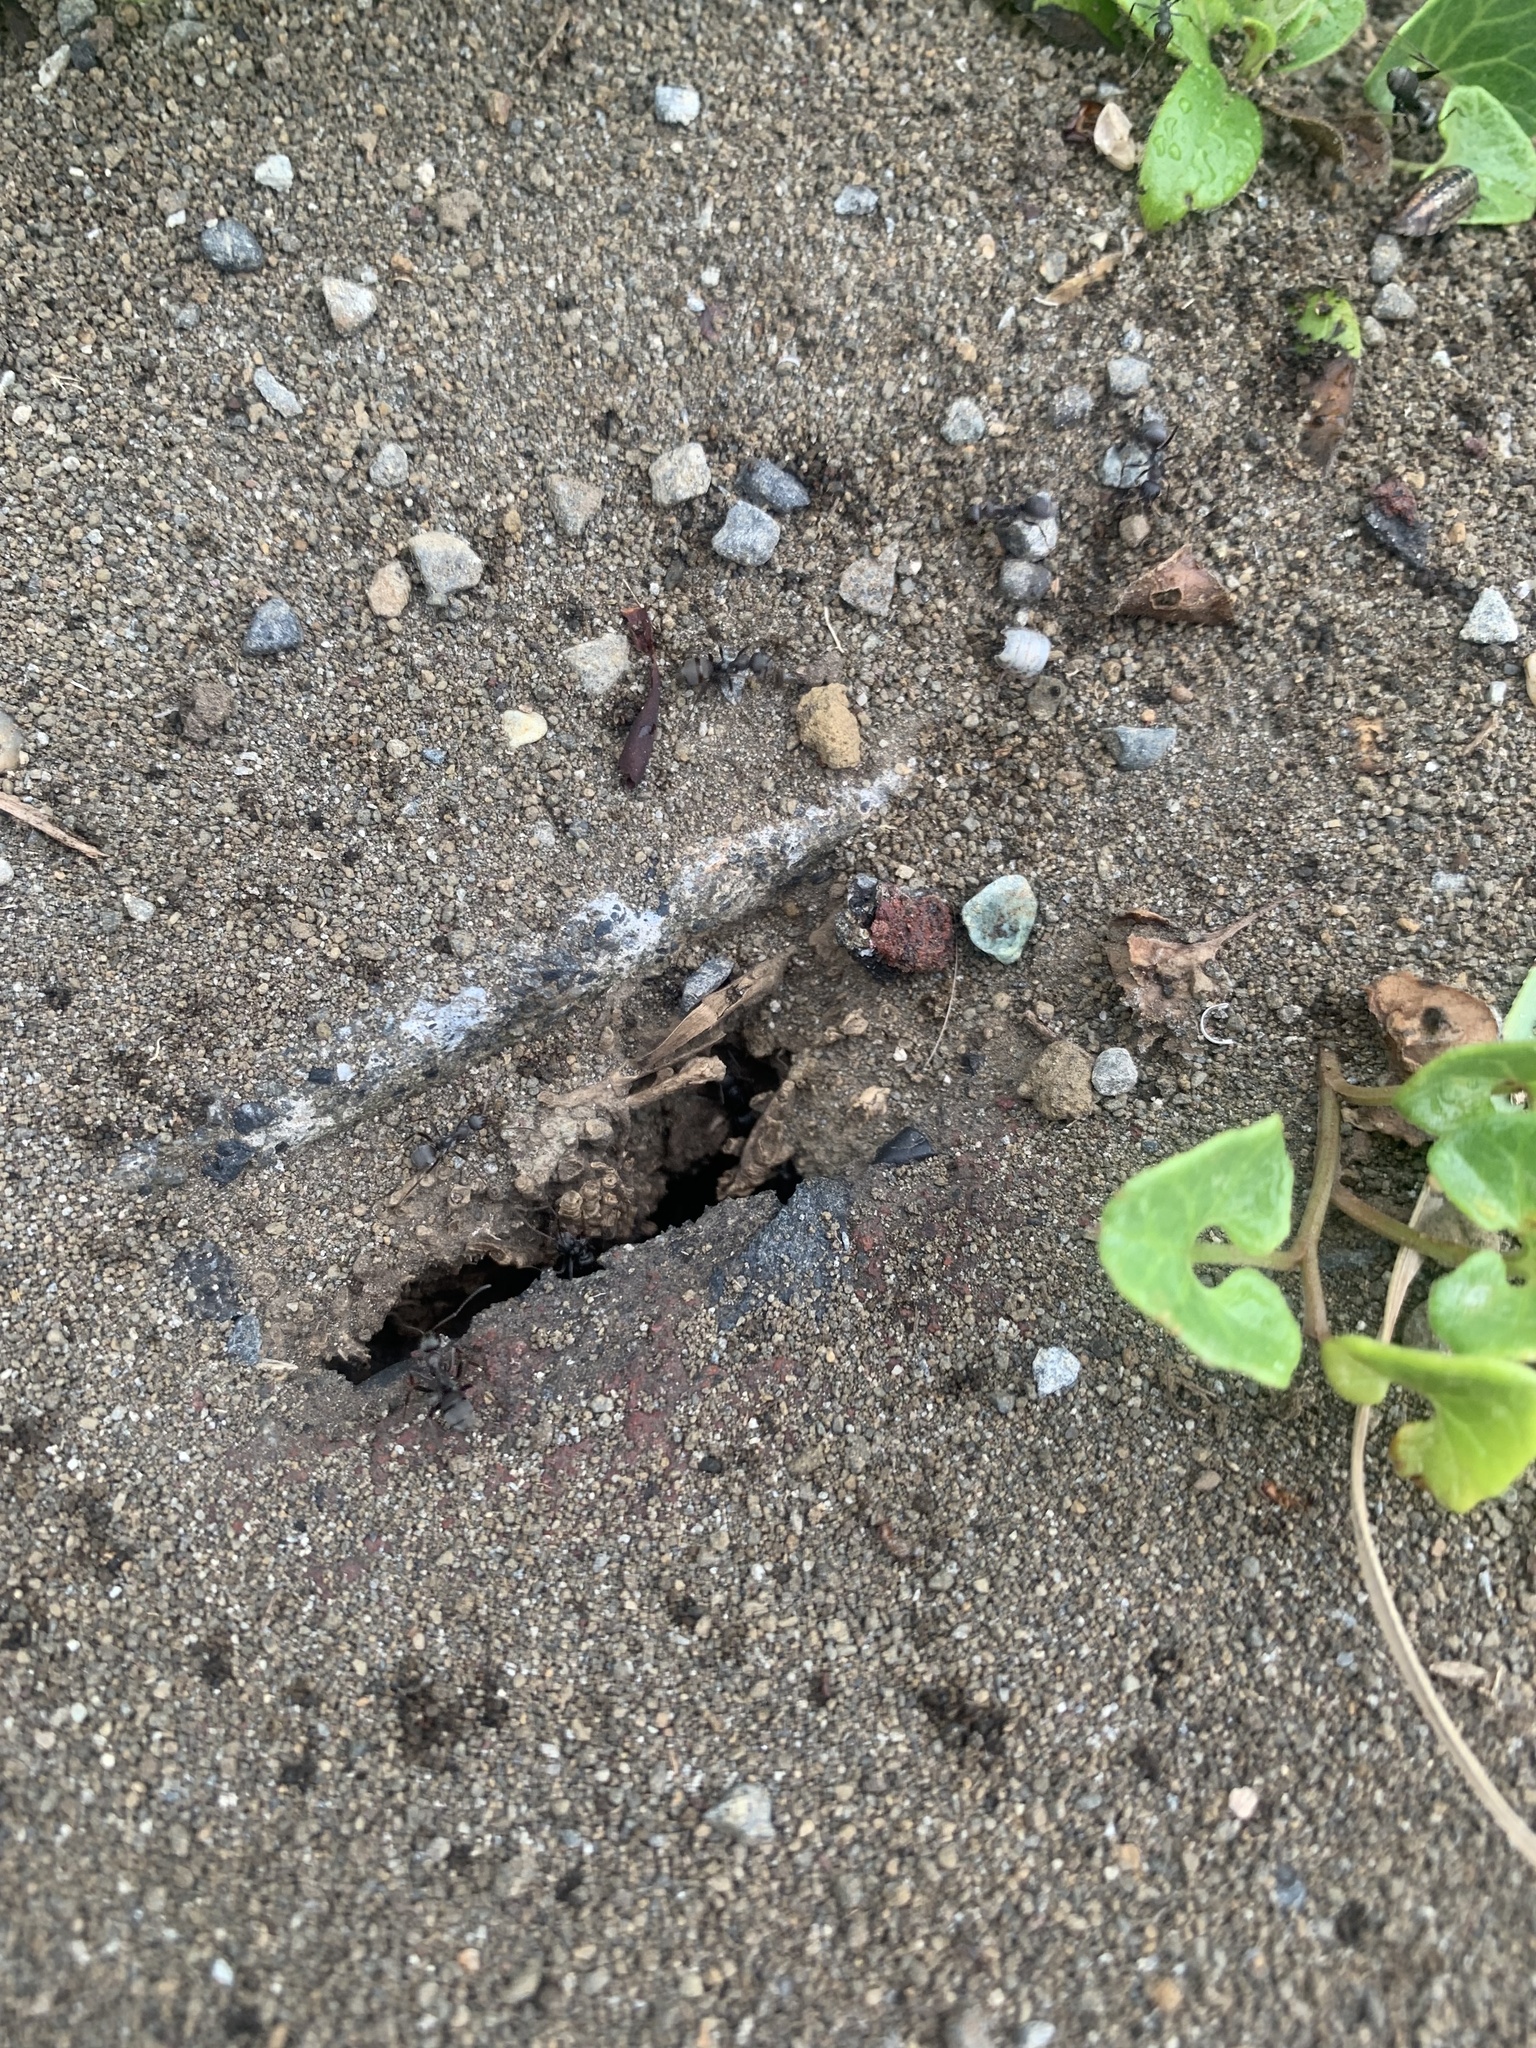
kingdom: Animalia
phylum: Arthropoda
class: Insecta
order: Hymenoptera
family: Formicidae
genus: Formica
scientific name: Formica japonica
